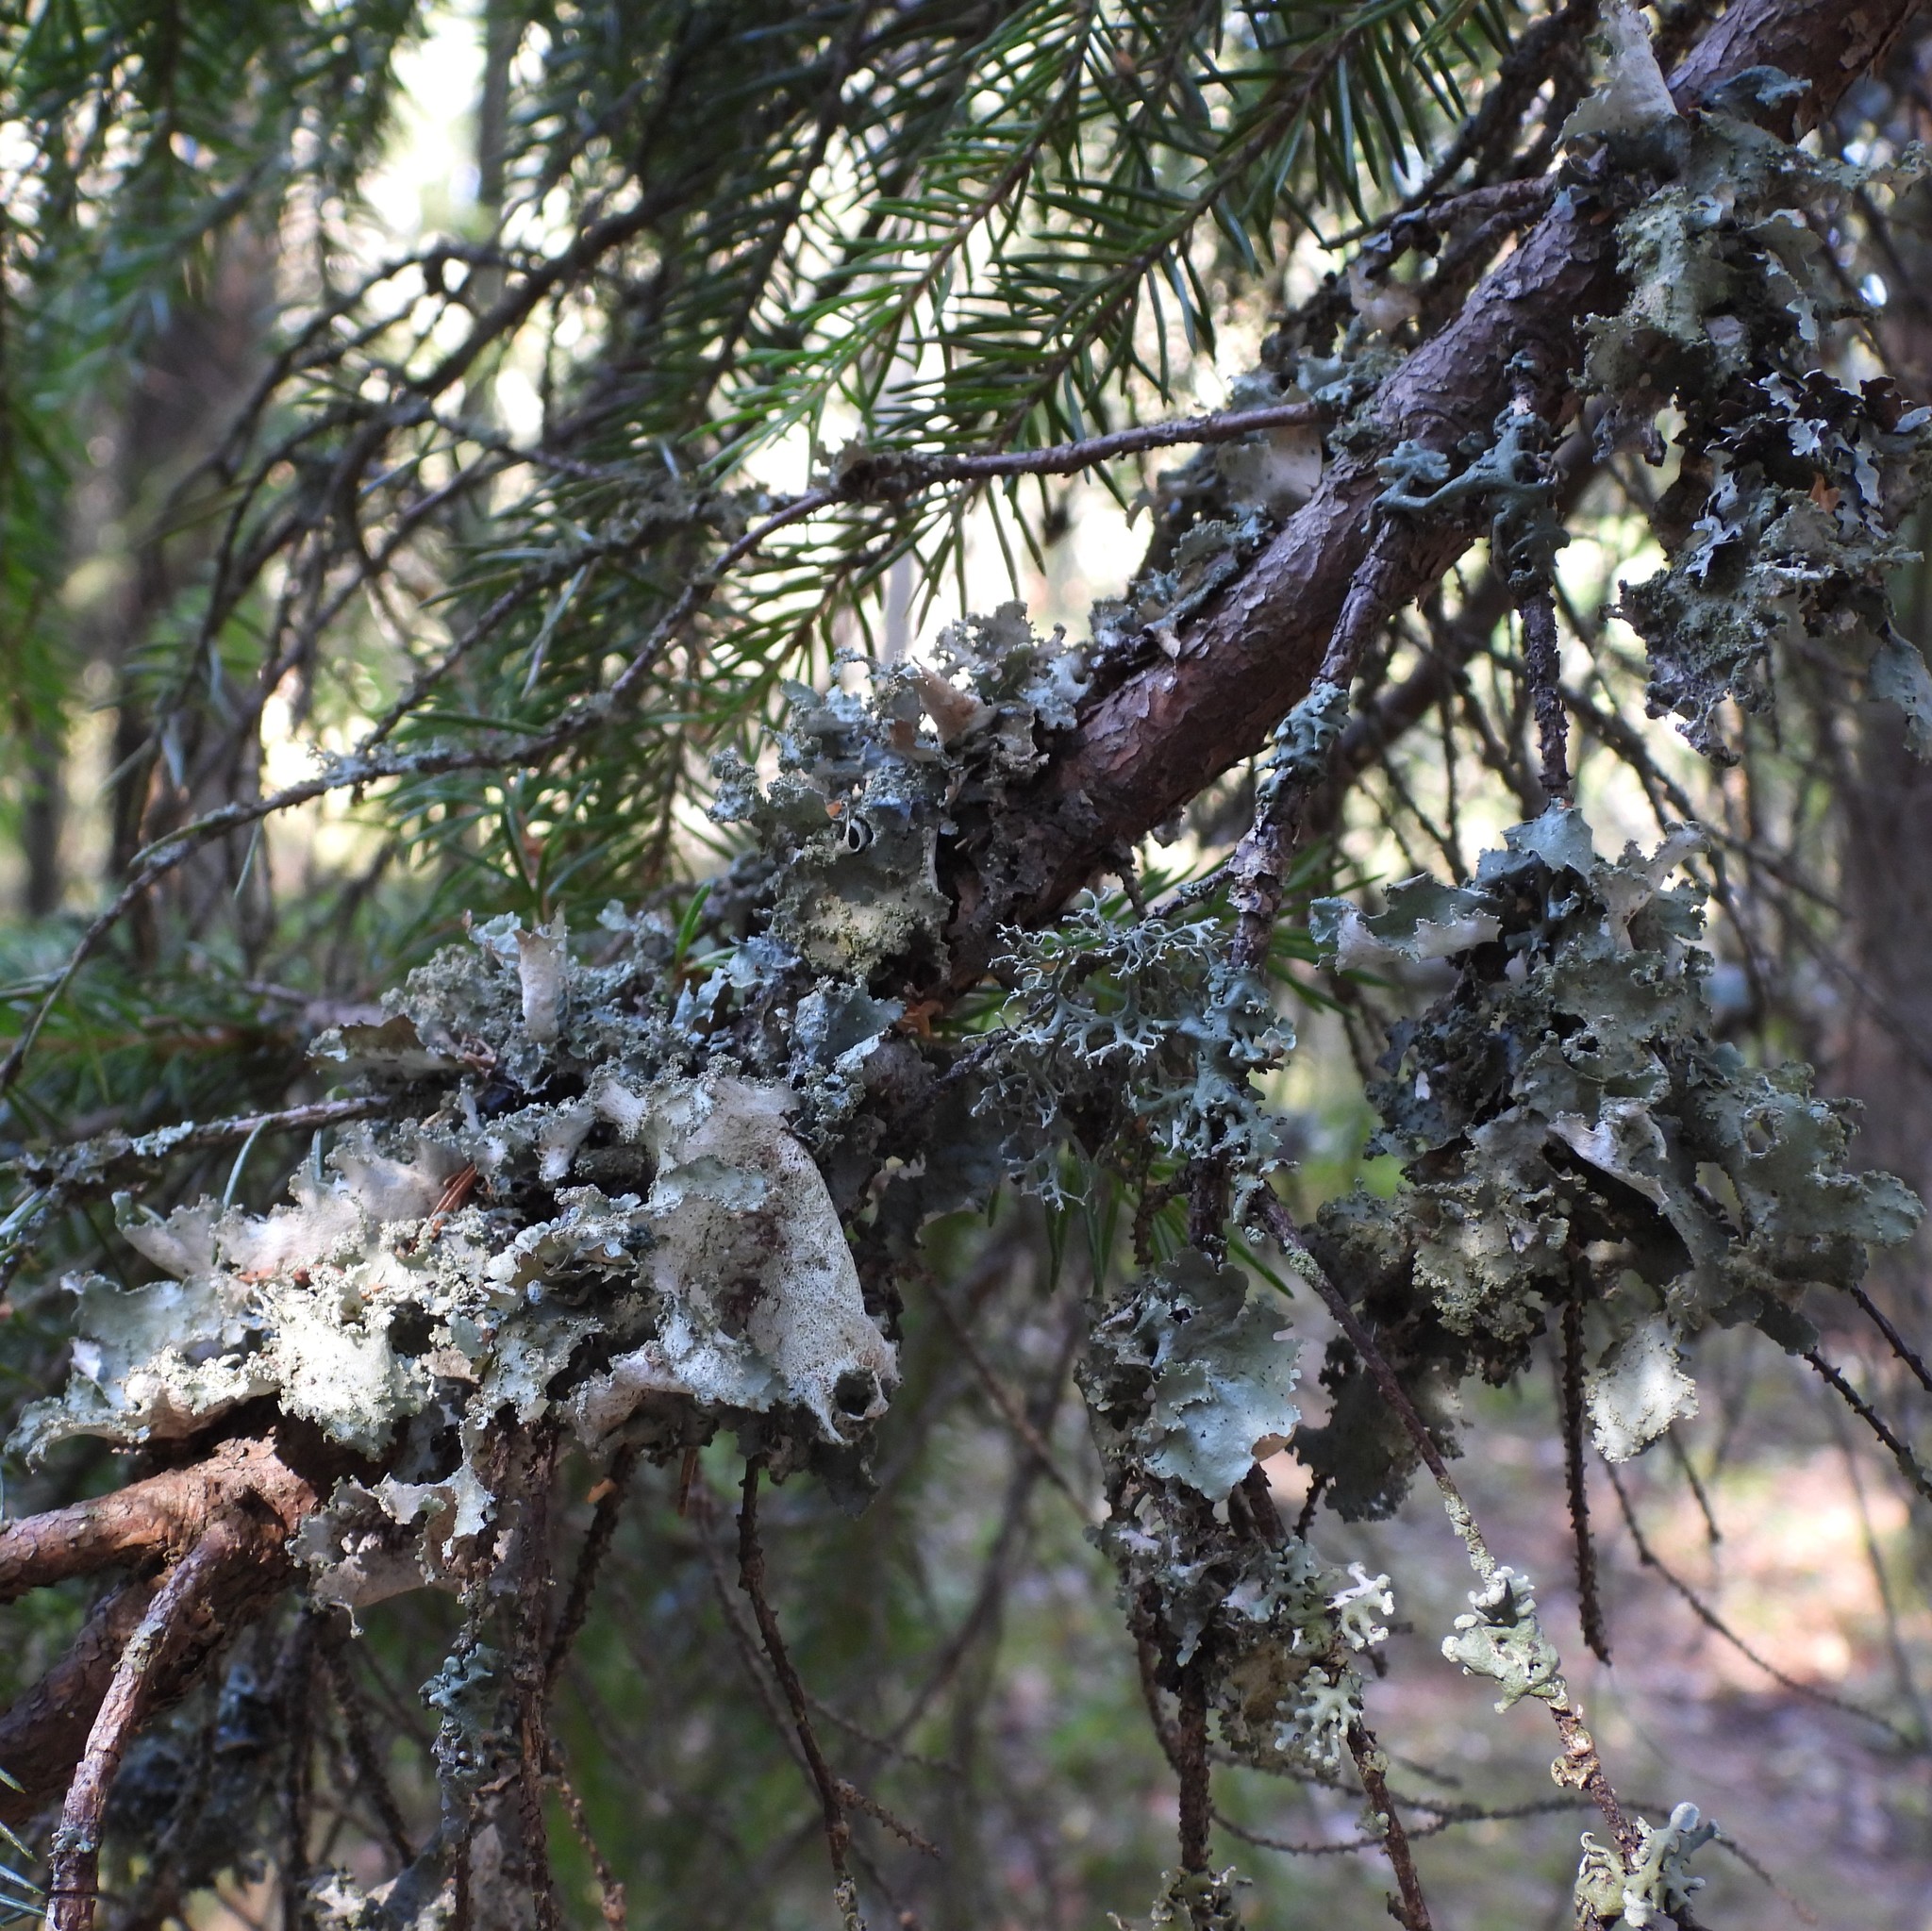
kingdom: Fungi
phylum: Ascomycota
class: Lecanoromycetes
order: Lecanorales
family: Parmeliaceae
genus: Platismatia
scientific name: Platismatia glauca
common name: Varied rag lichen
